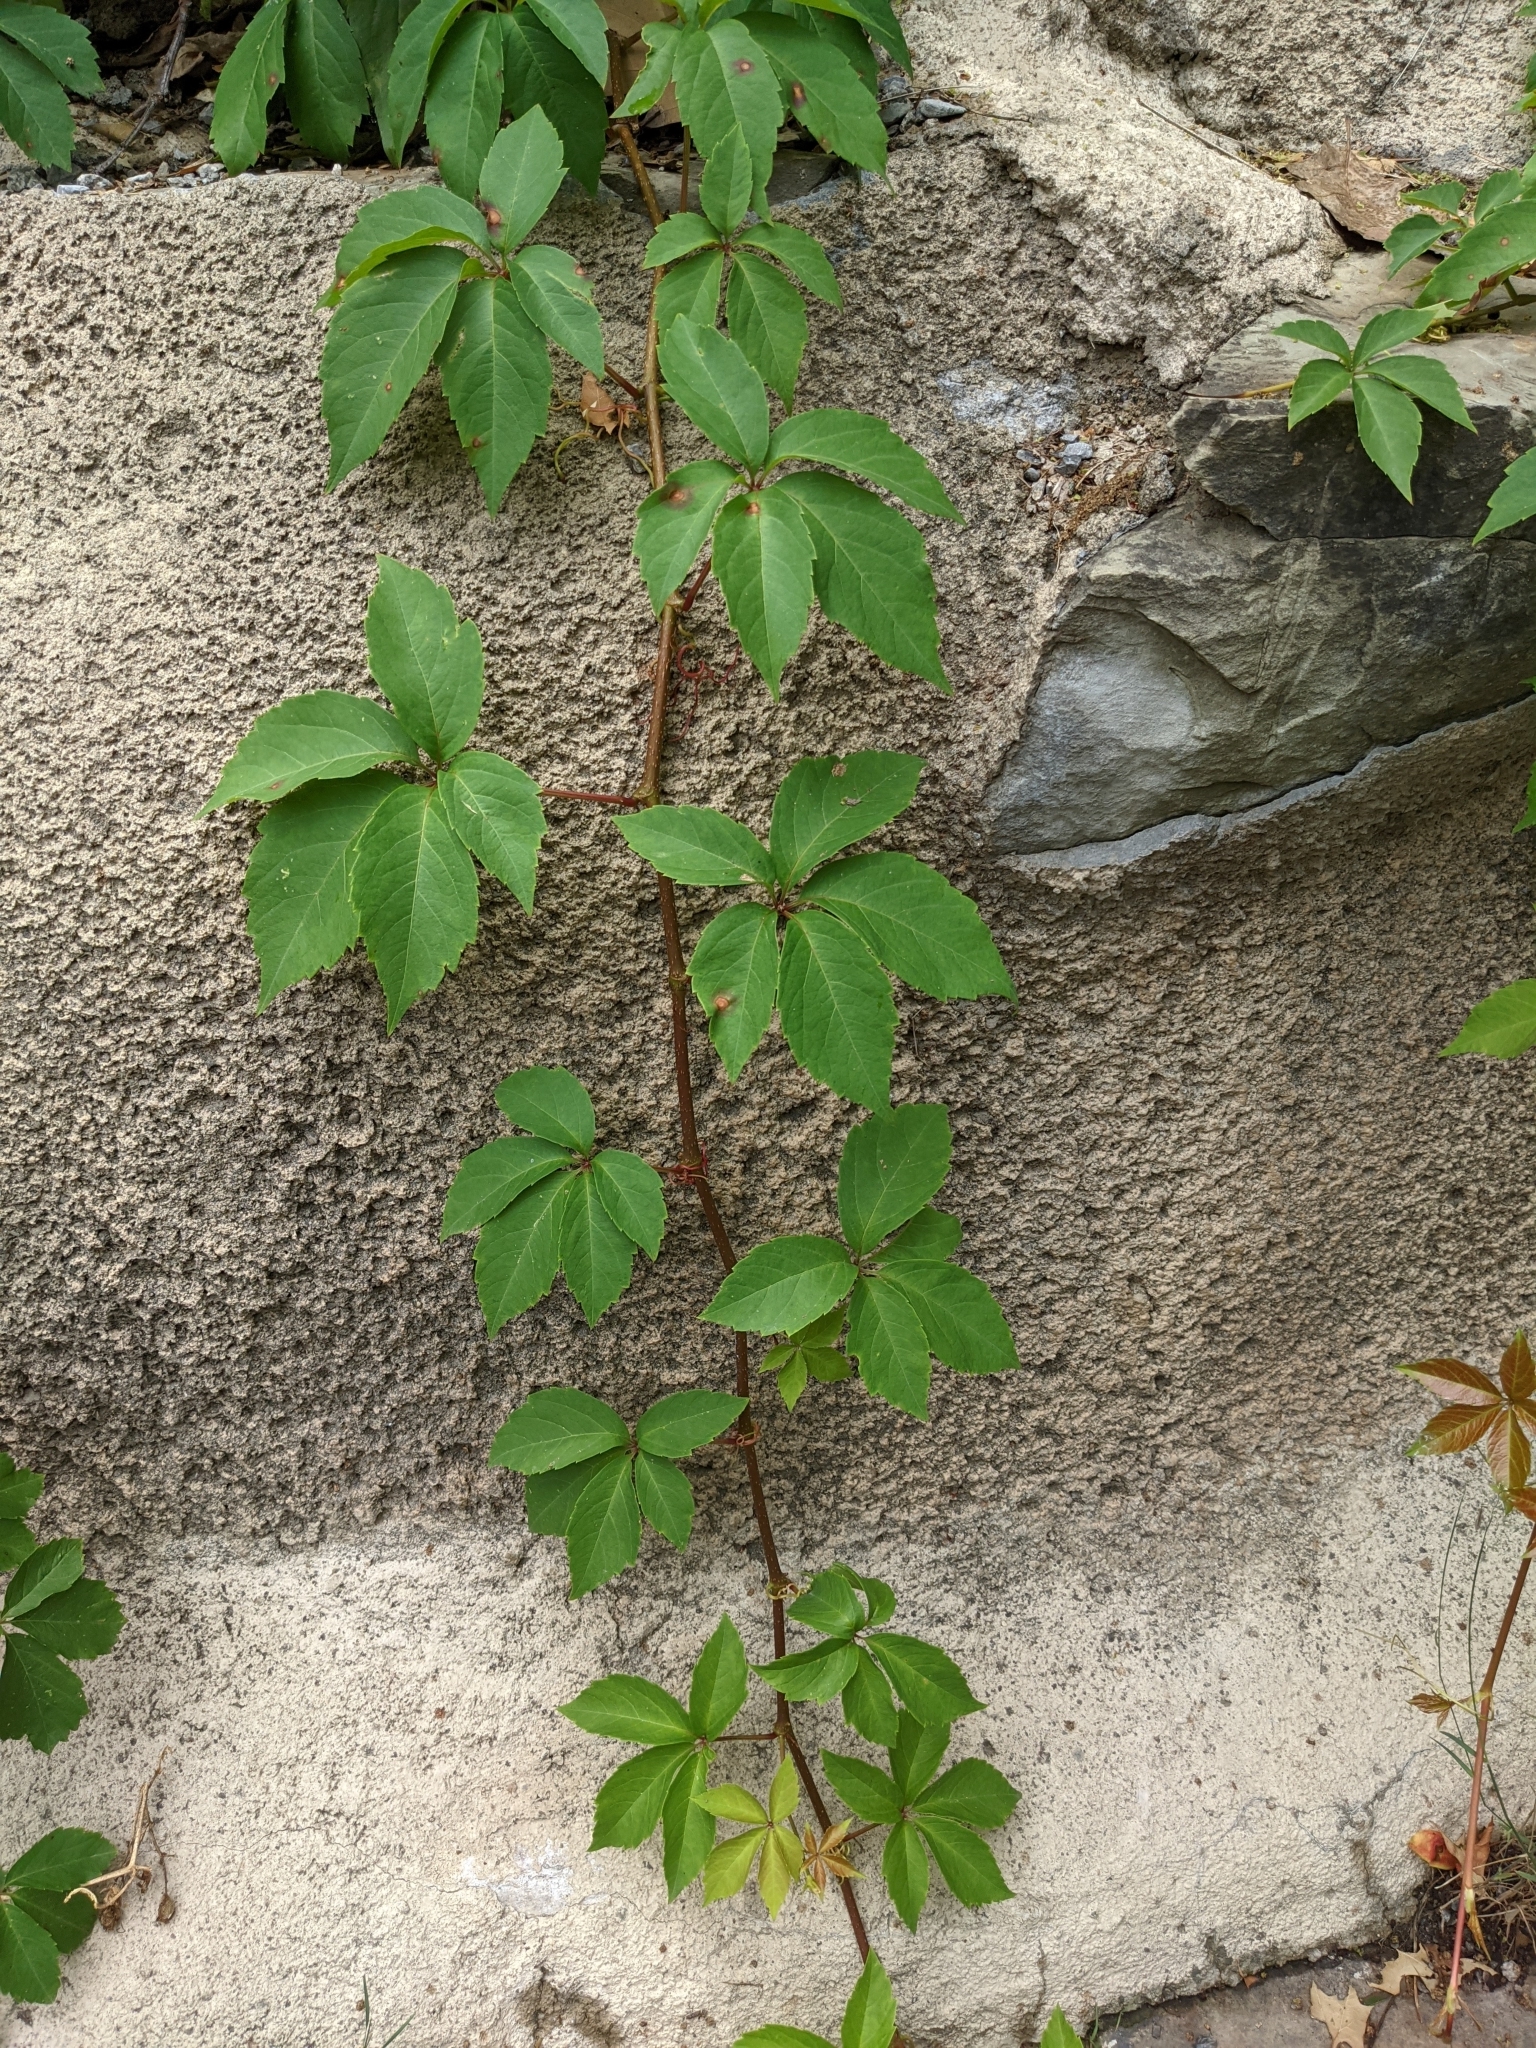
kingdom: Plantae
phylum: Tracheophyta
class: Magnoliopsida
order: Vitales
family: Vitaceae
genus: Parthenocissus
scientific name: Parthenocissus quinquefolia
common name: Virginia-creeper
